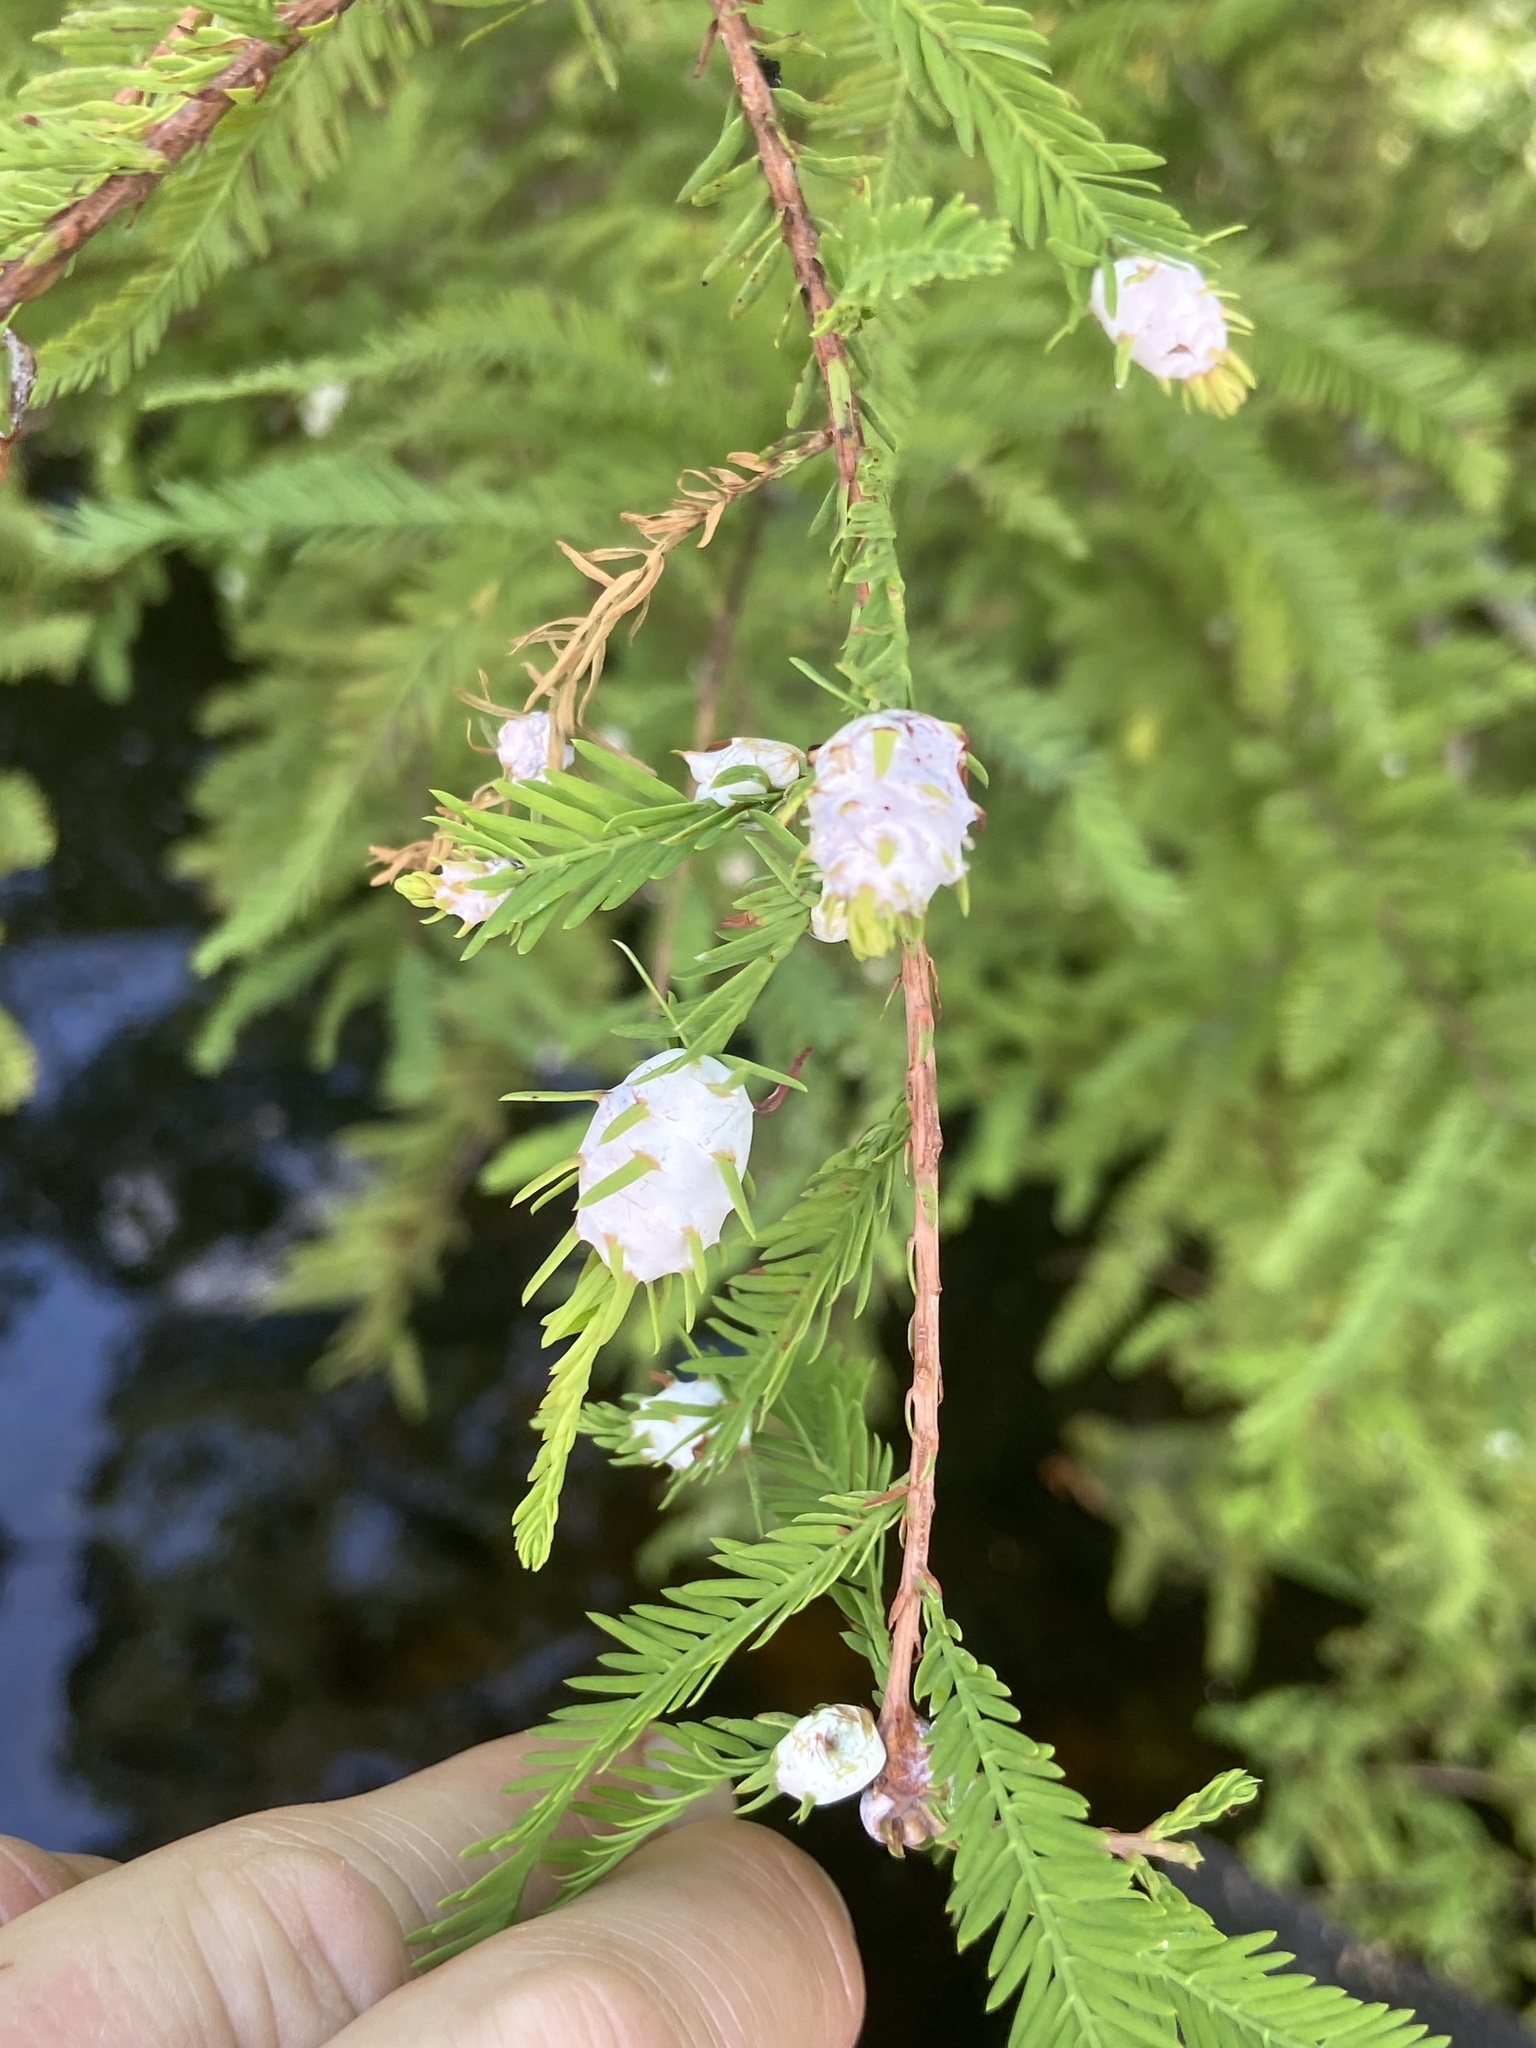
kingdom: Animalia
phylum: Arthropoda
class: Insecta
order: Diptera
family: Cecidomyiidae
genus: Taxodiomyia
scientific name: Taxodiomyia cupressiananassa
